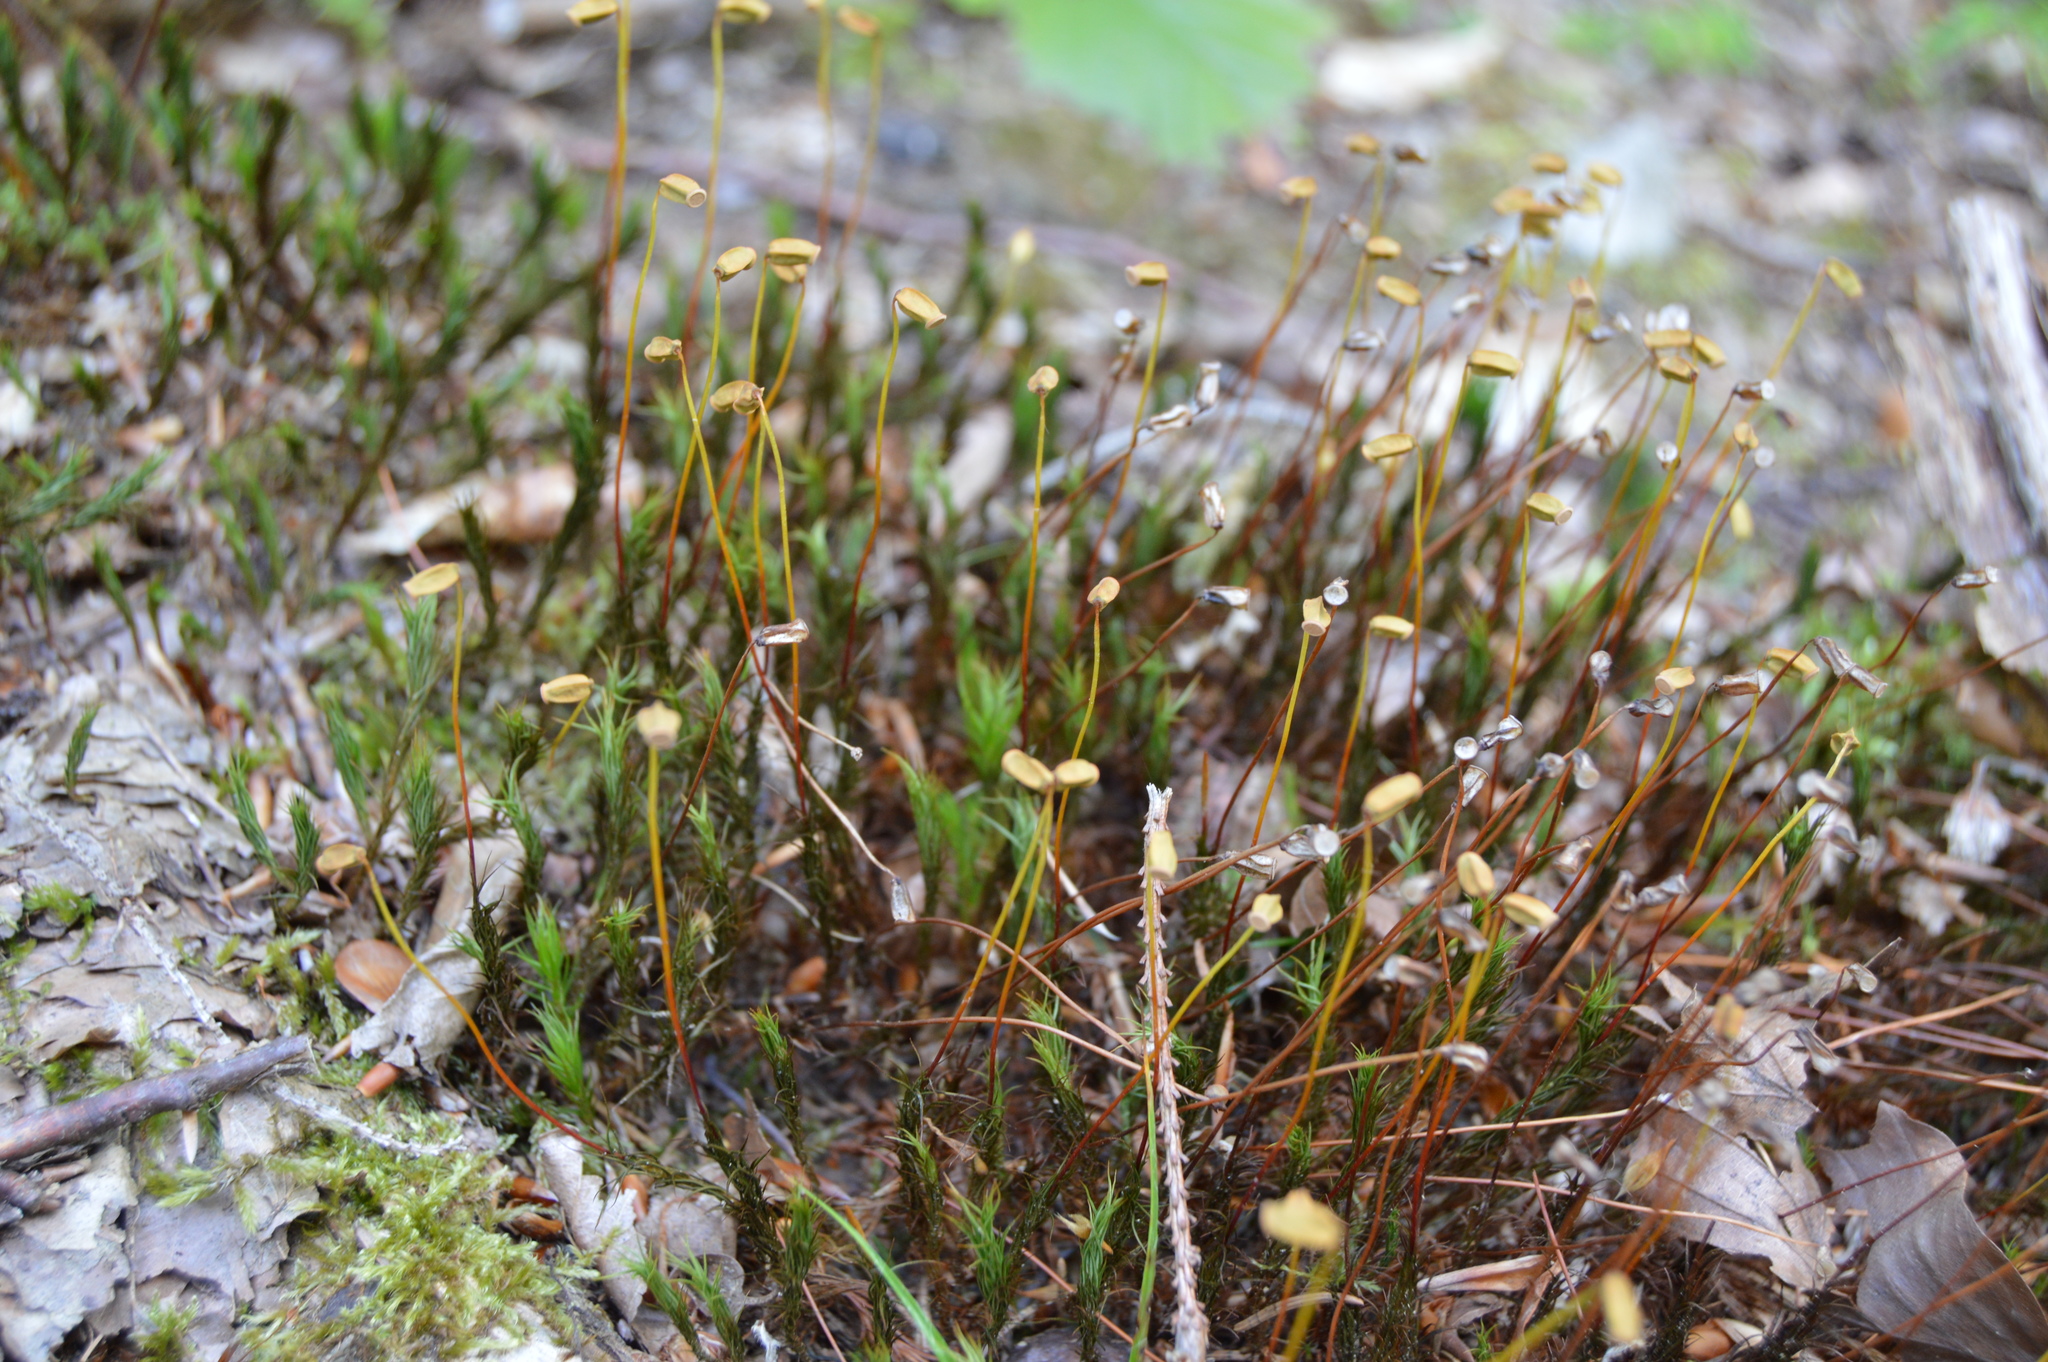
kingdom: Plantae
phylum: Bryophyta
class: Polytrichopsida
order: Polytrichales
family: Polytrichaceae
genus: Polytrichum
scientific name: Polytrichum formosum
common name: Bank haircap moss
